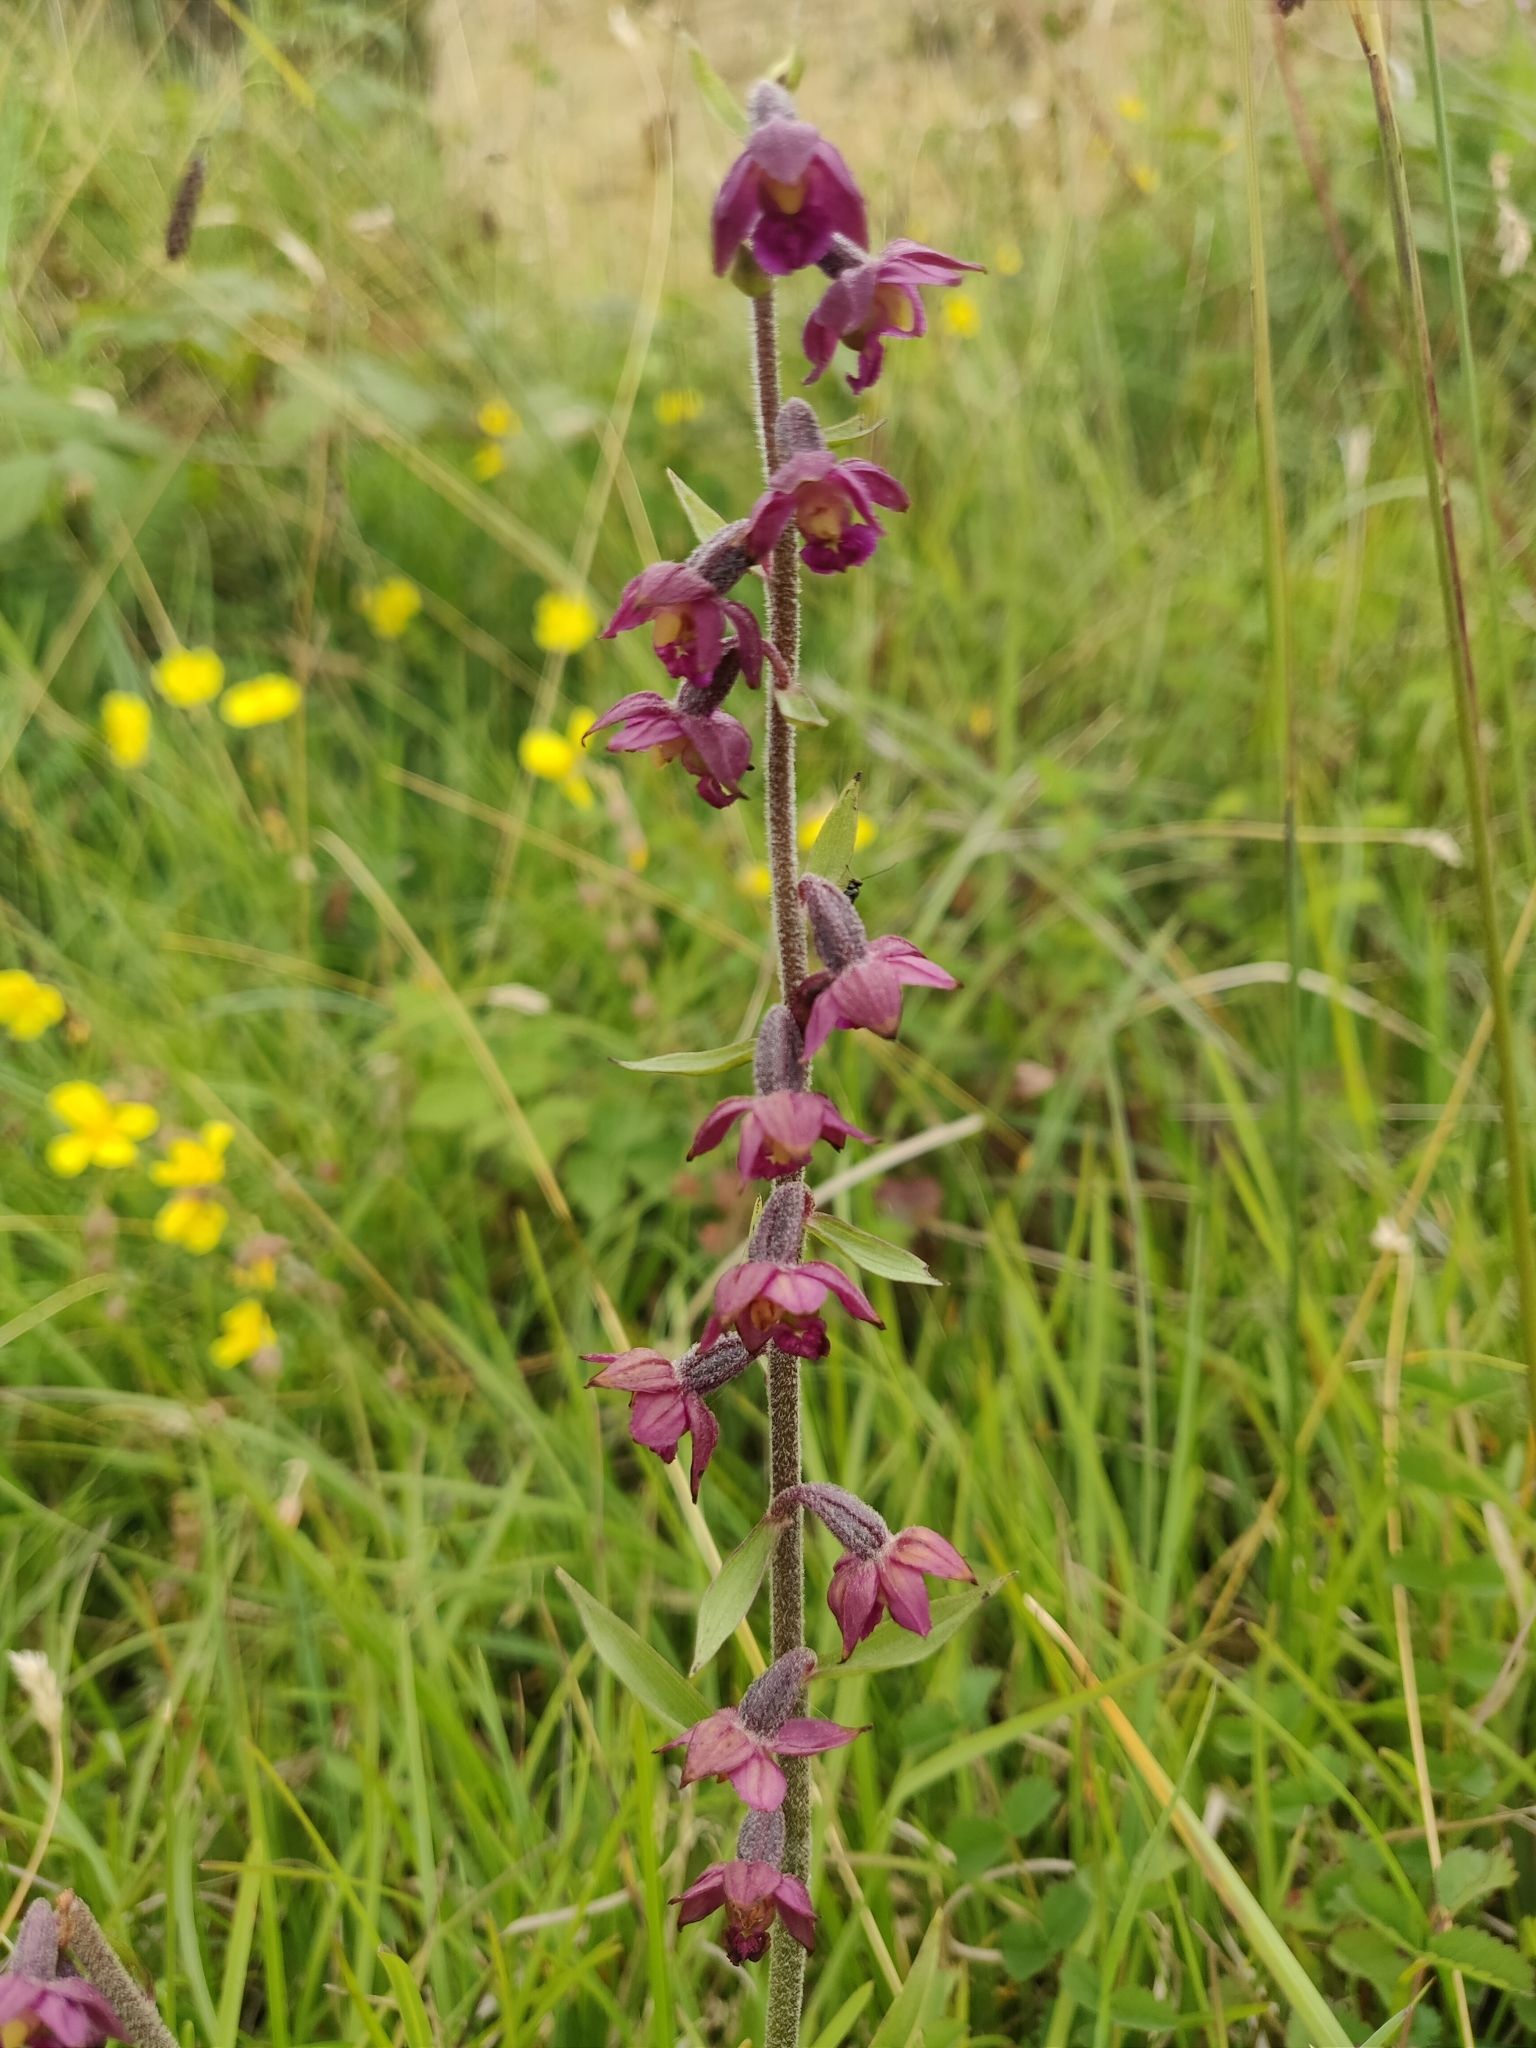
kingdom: Plantae
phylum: Tracheophyta
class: Liliopsida
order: Asparagales
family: Orchidaceae
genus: Epipactis
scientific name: Epipactis atrorubens
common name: Dark-red helleborine
